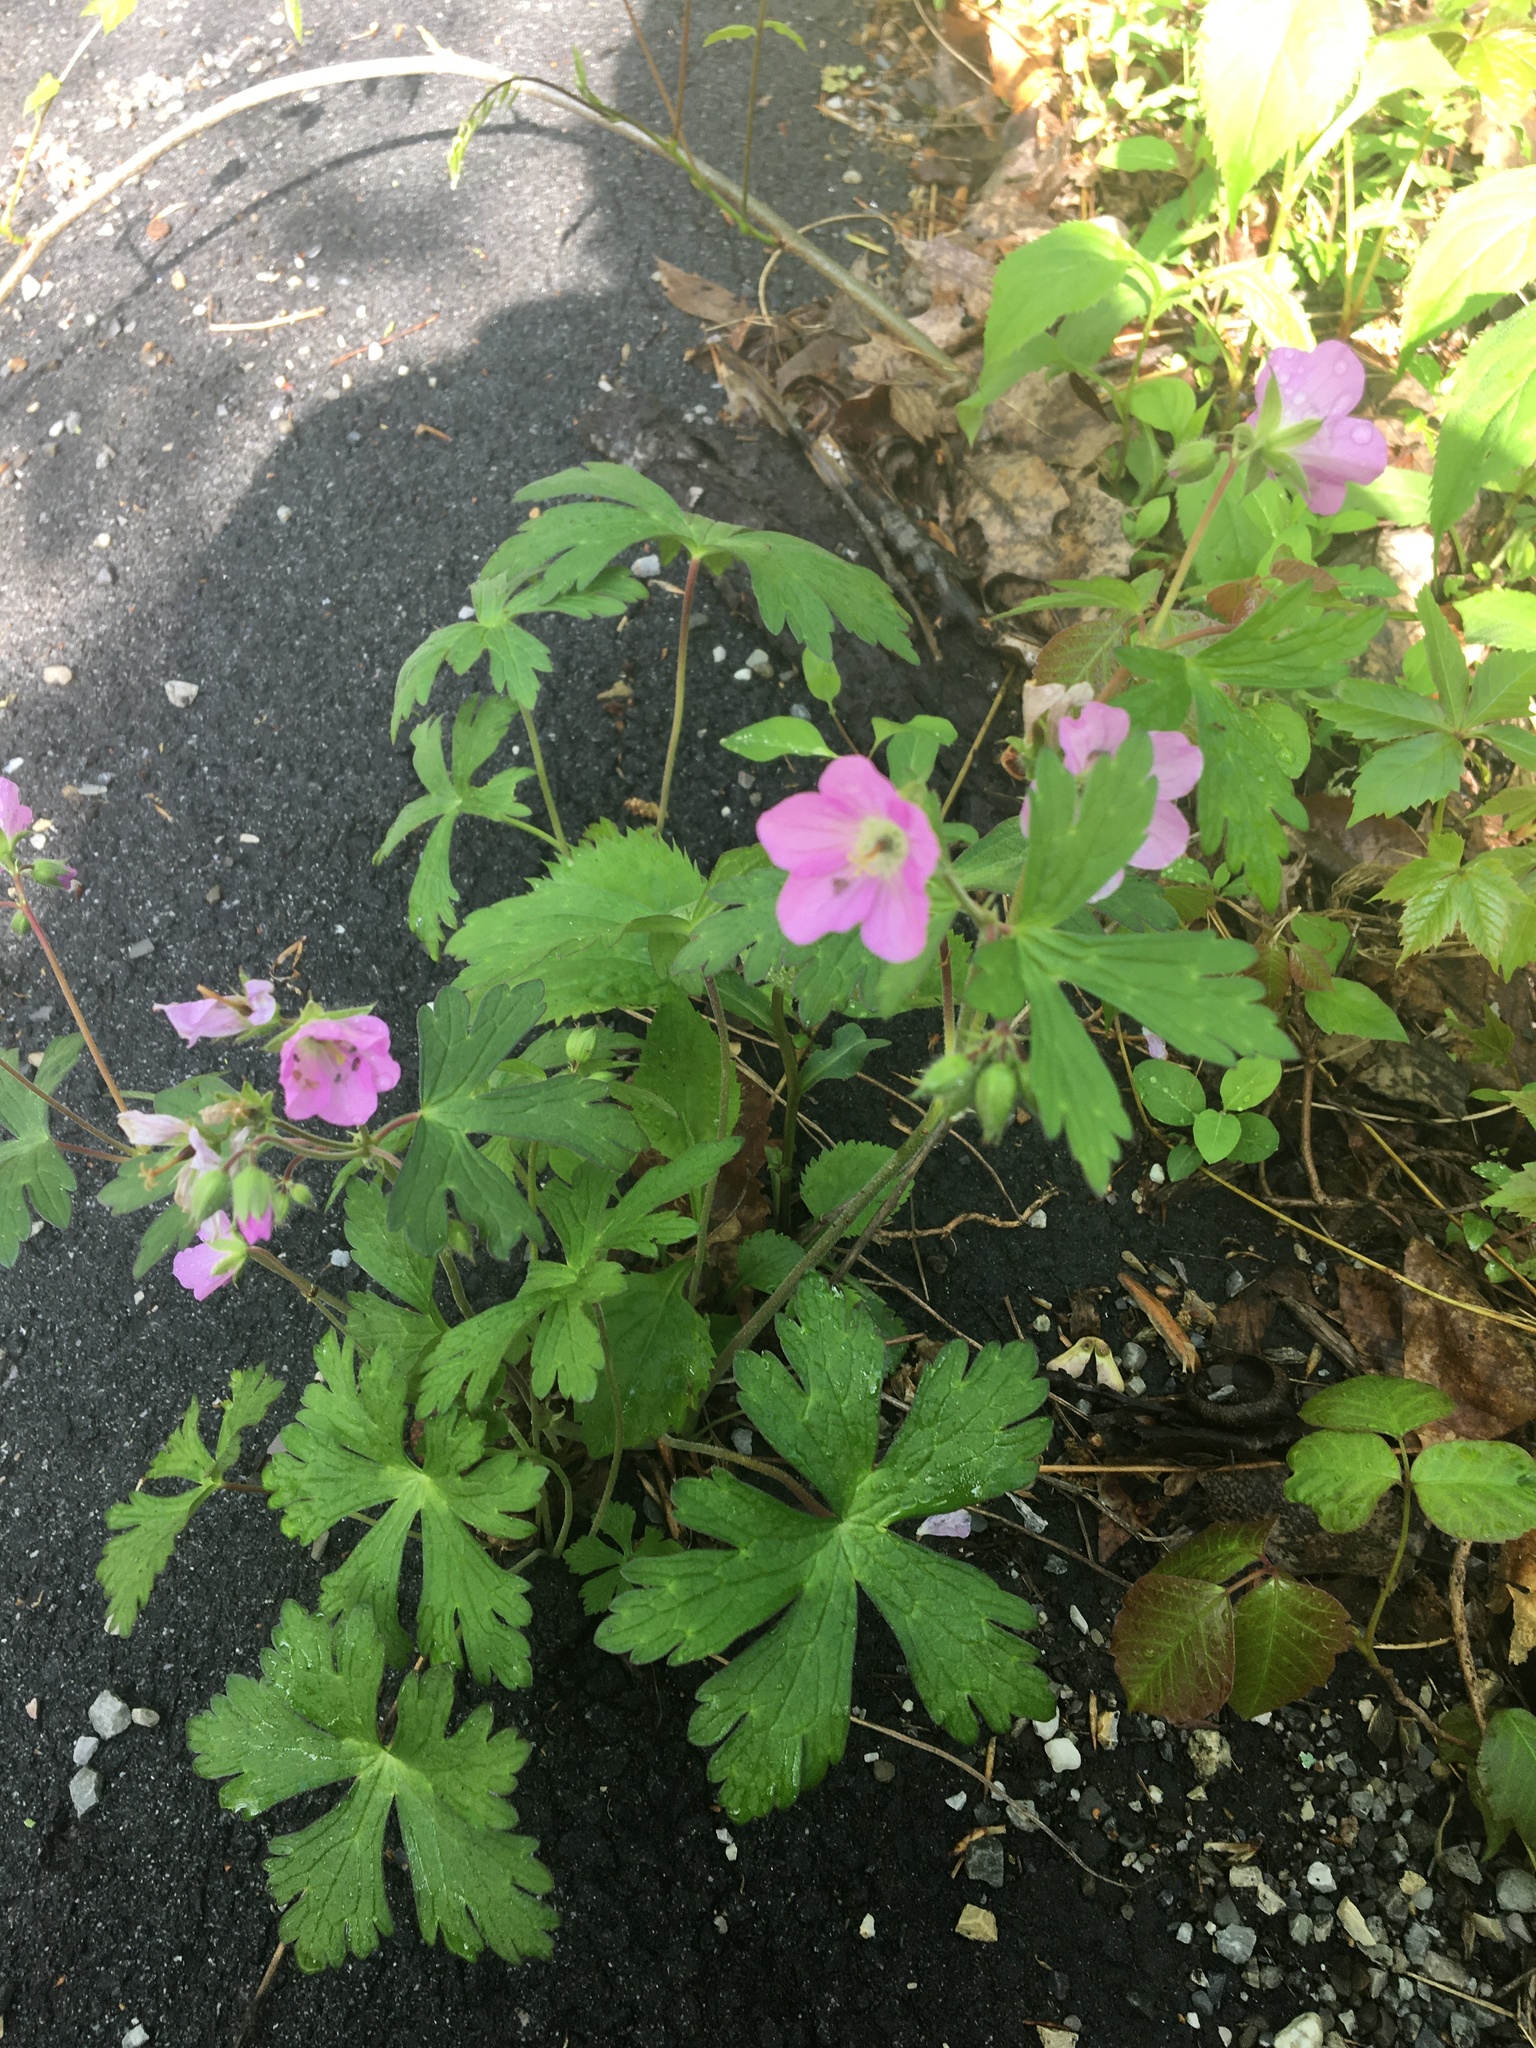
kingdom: Plantae
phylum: Tracheophyta
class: Magnoliopsida
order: Geraniales
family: Geraniaceae
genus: Geranium
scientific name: Geranium maculatum
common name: Spotted geranium
